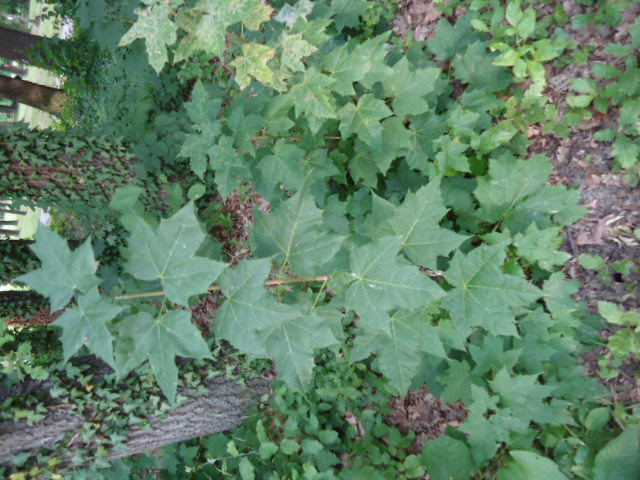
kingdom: Plantae
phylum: Tracheophyta
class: Magnoliopsida
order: Sapindales
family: Sapindaceae
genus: Acer
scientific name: Acer platanoides
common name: Norway maple
